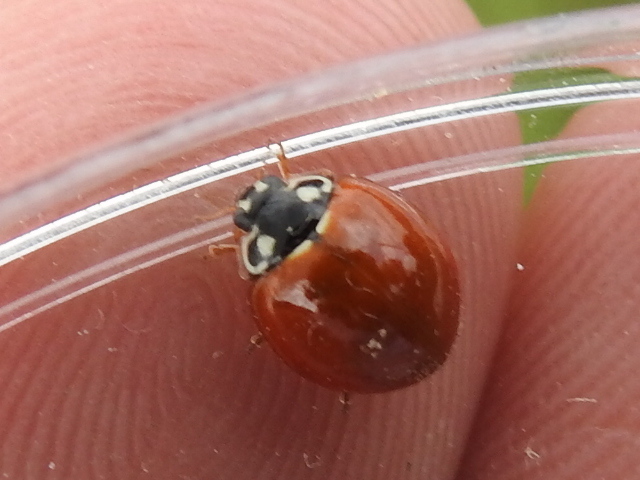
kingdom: Animalia
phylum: Arthropoda
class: Insecta
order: Coleoptera
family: Coccinellidae
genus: Cycloneda
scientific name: Cycloneda sanguinea
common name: Ladybird beetle
